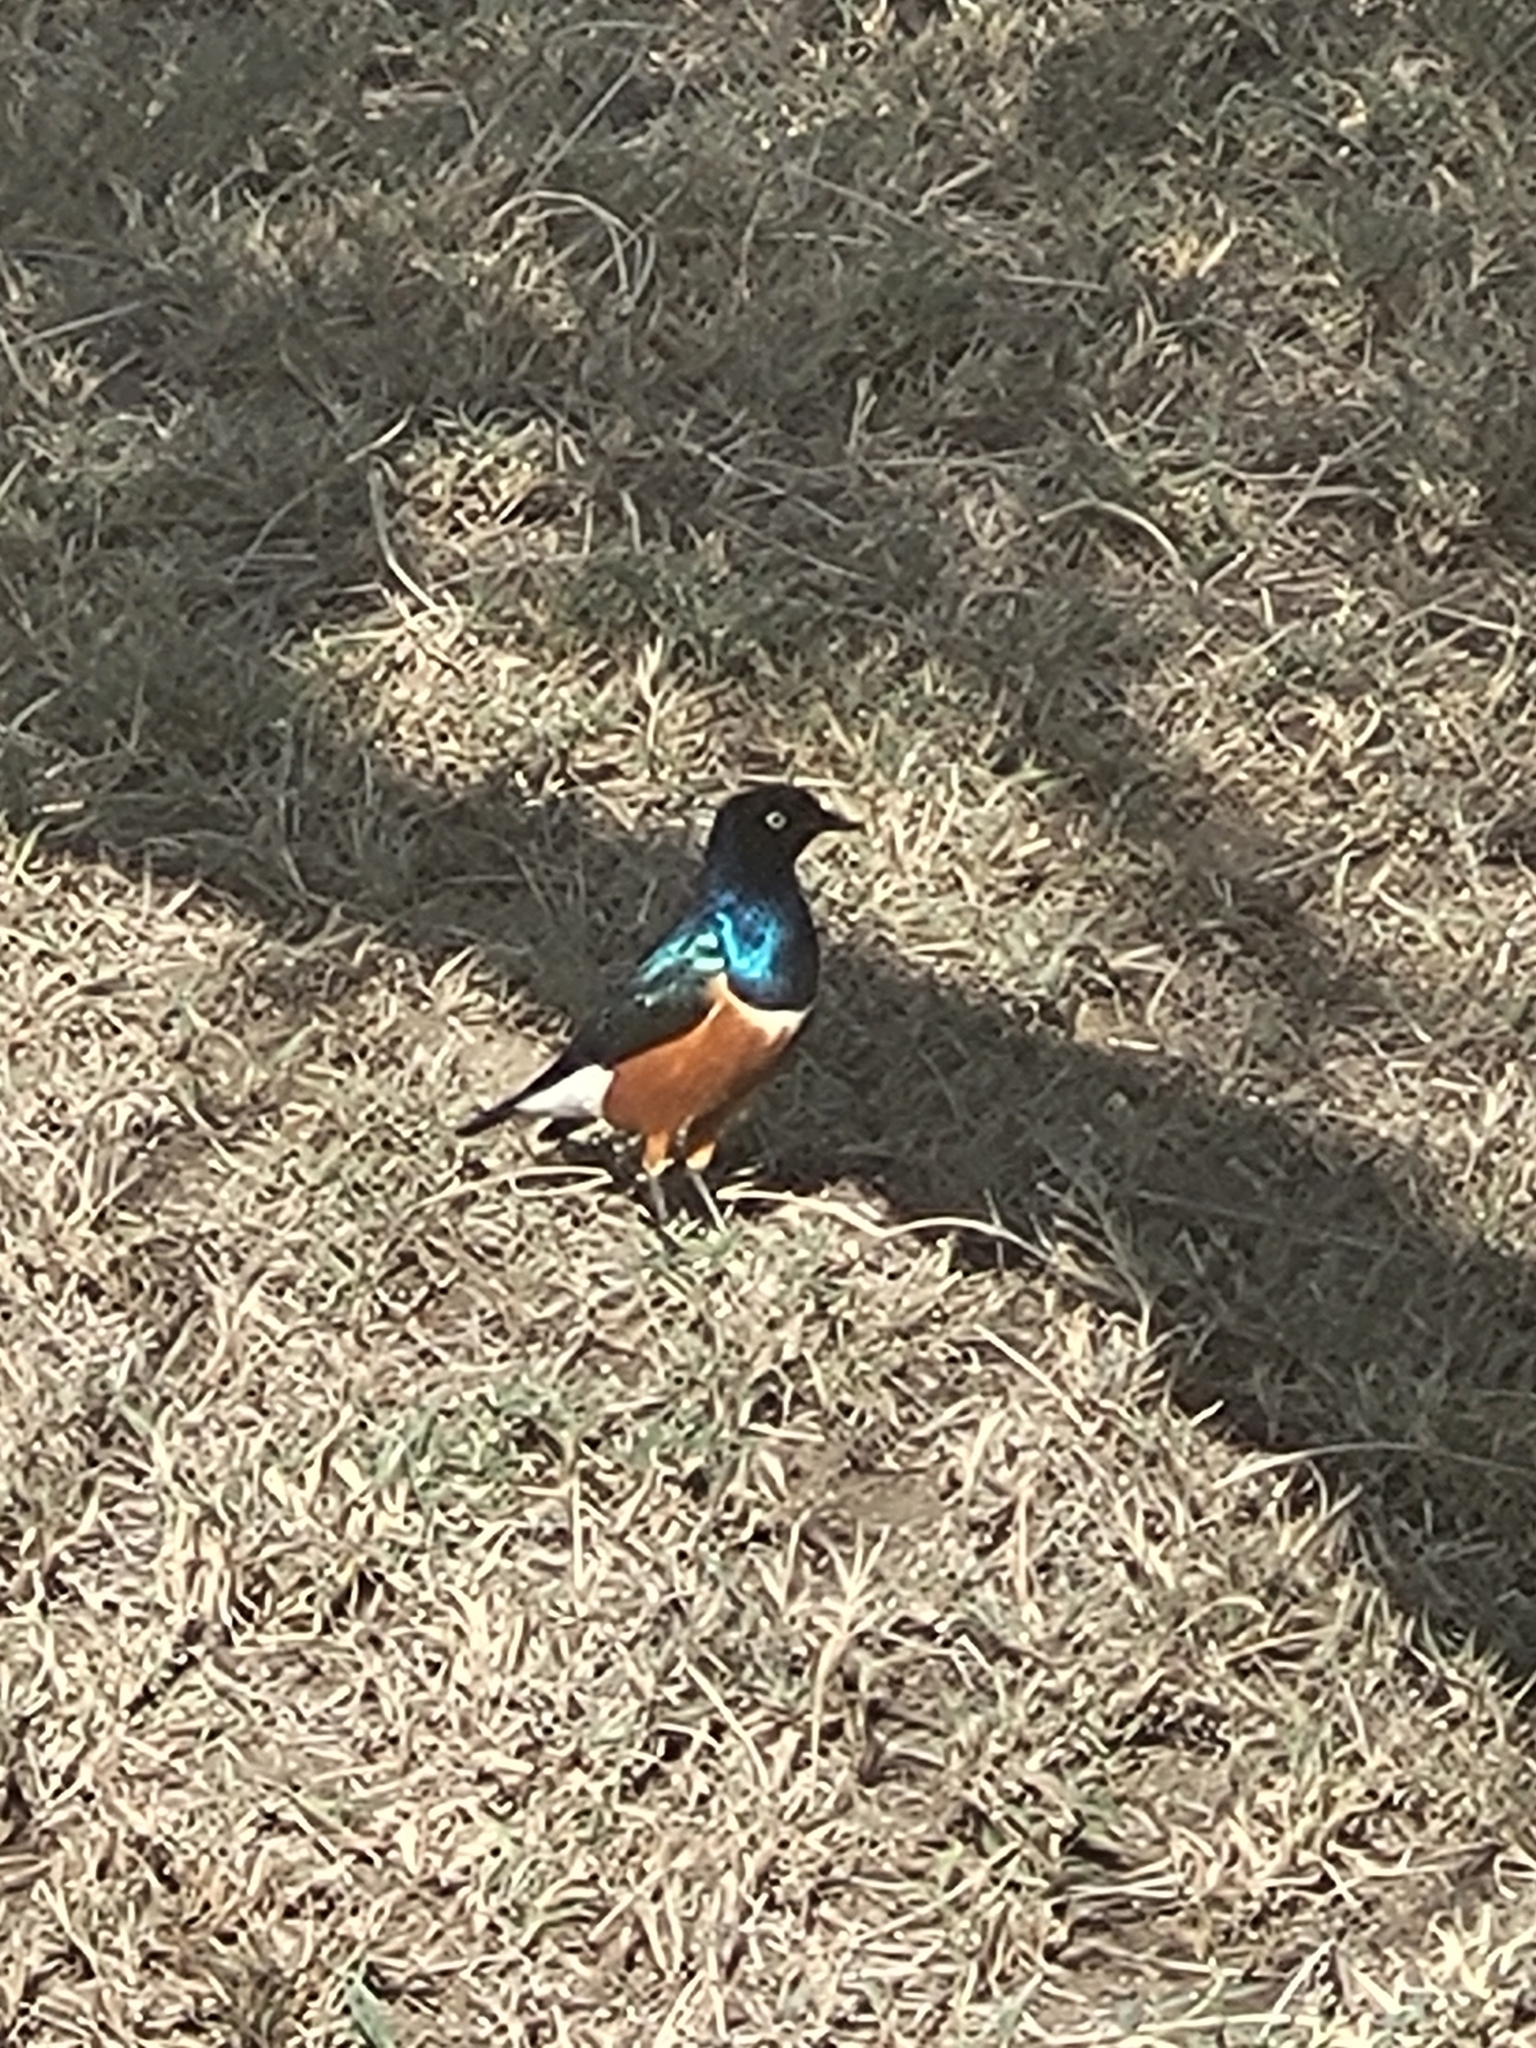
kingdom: Animalia
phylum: Chordata
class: Aves
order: Passeriformes
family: Sturnidae
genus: Lamprotornis
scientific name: Lamprotornis superbus
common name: Superb starling
